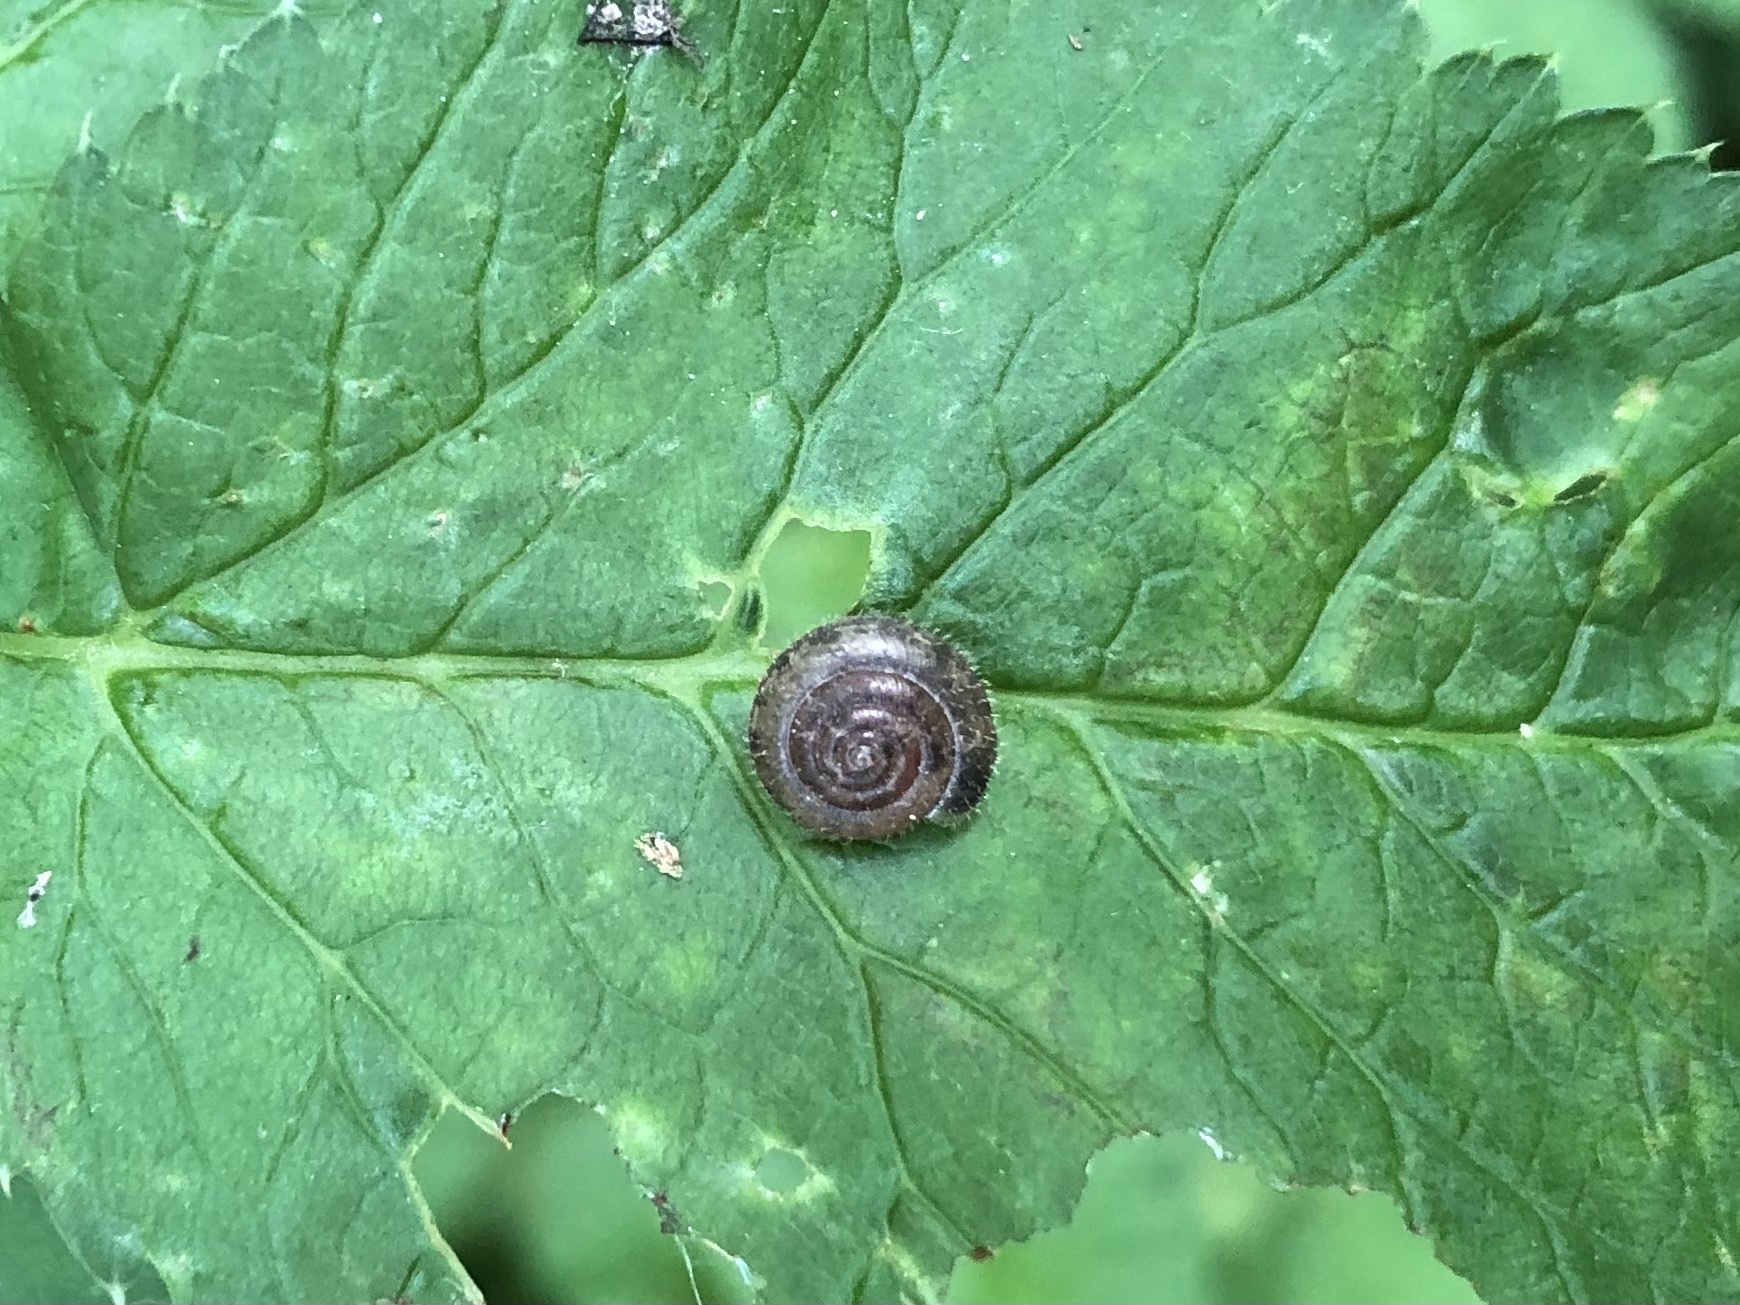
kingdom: Animalia
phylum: Mollusca
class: Gastropoda
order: Stylommatophora
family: Hygromiidae
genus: Trochulus
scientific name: Trochulus hispidus
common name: Hairy snail
